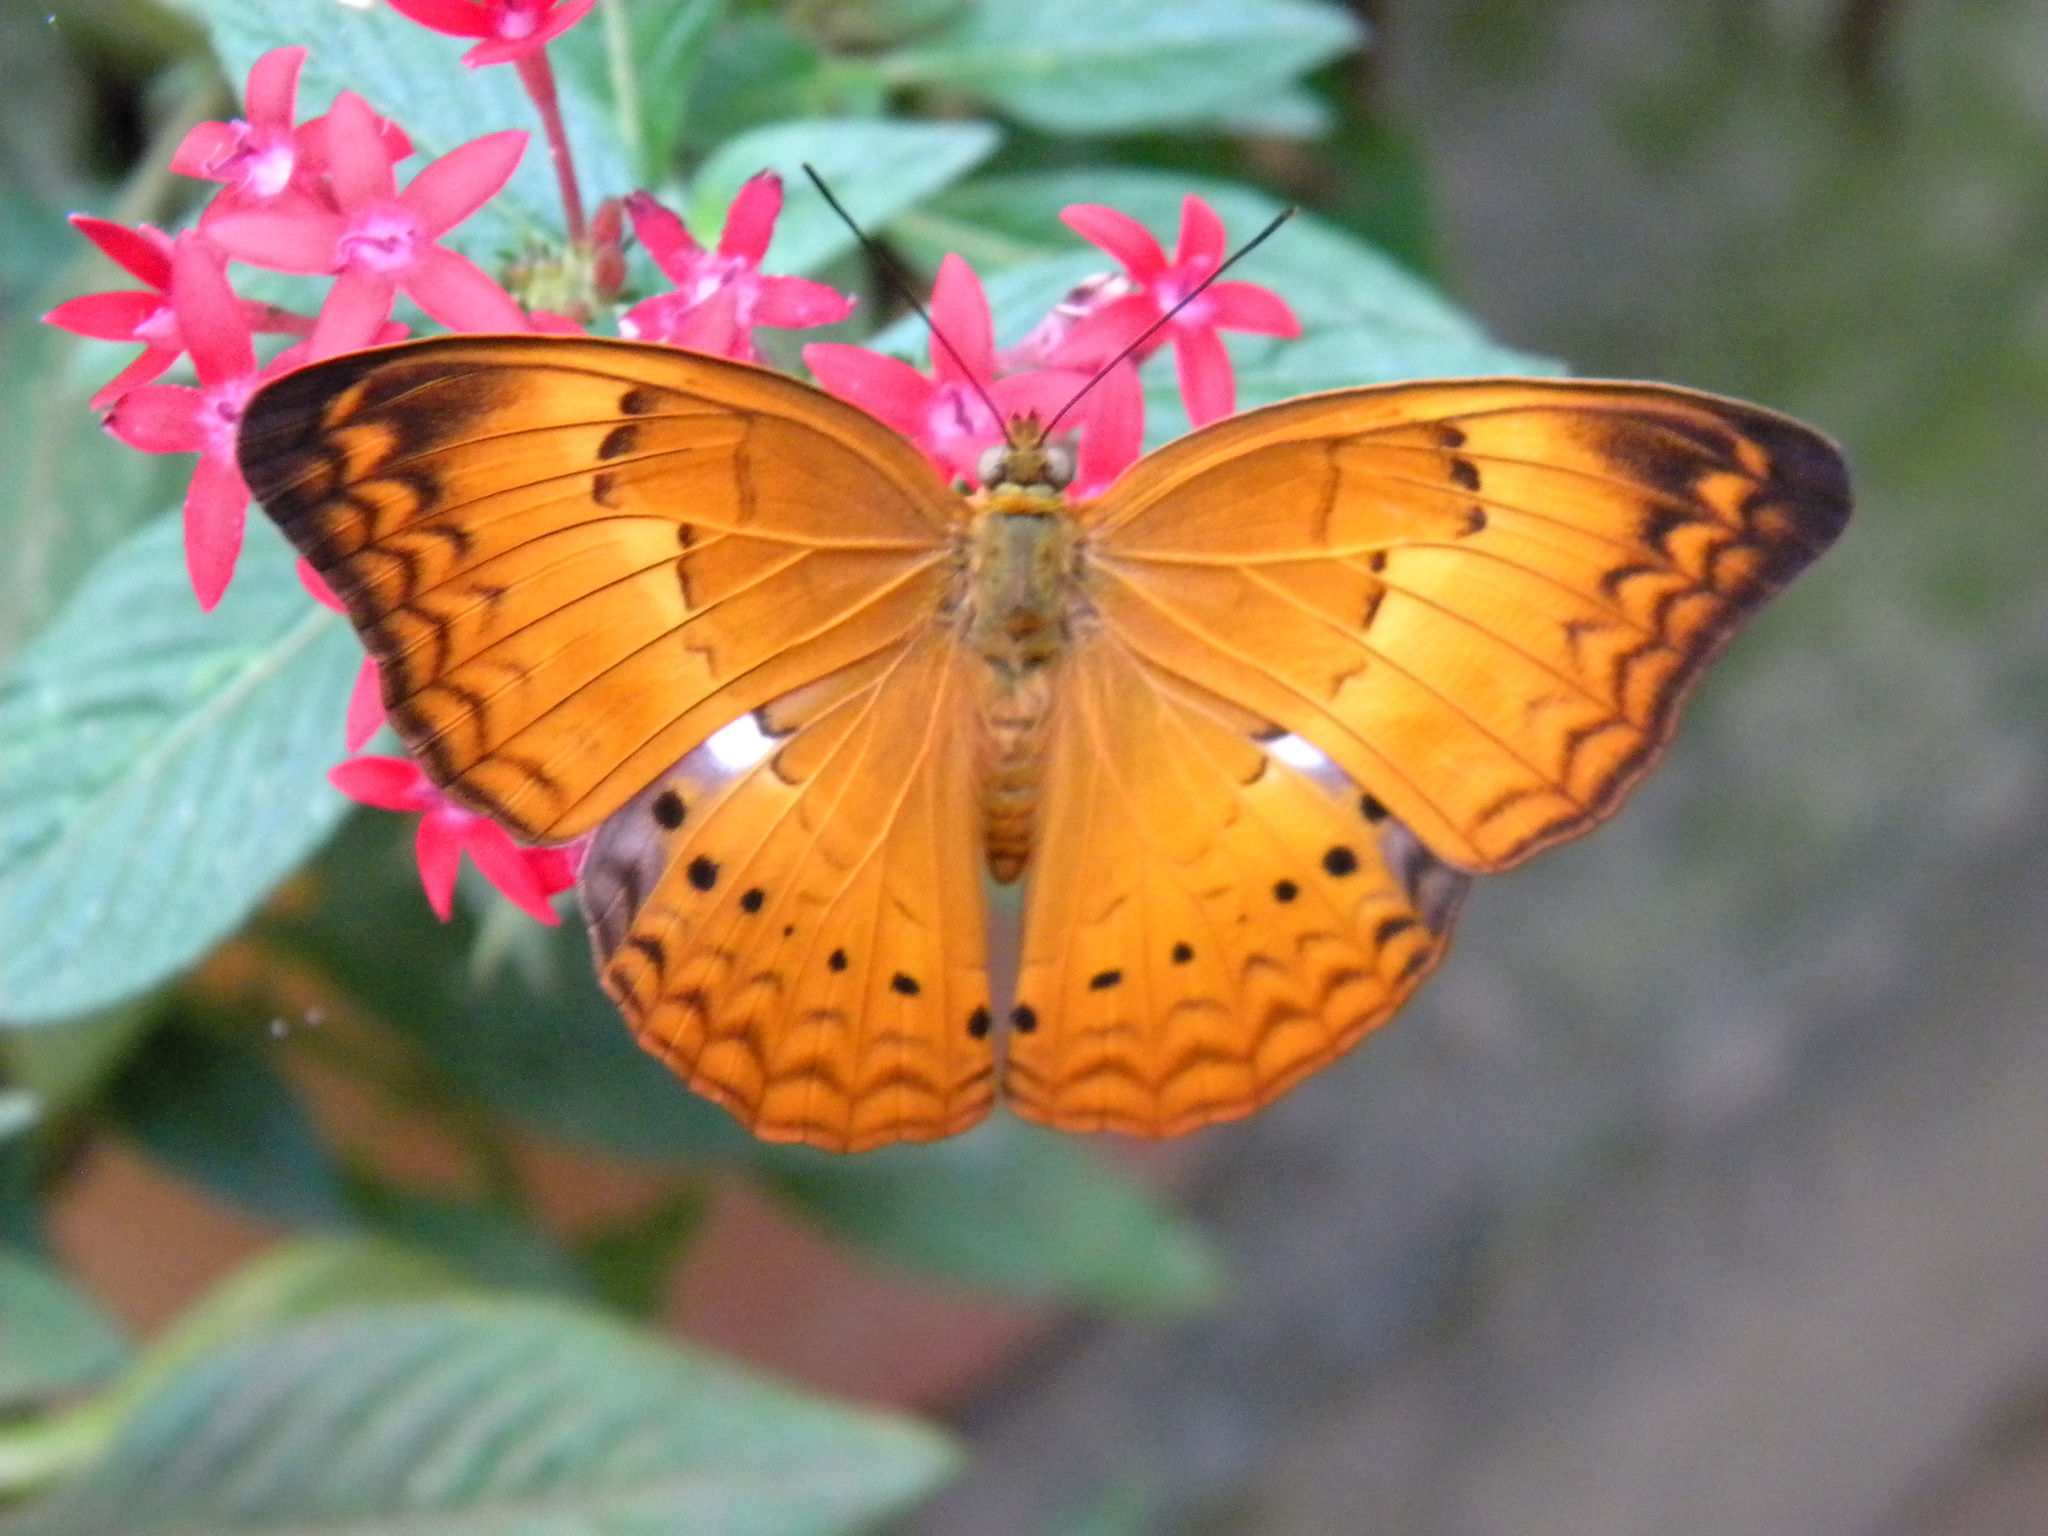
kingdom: Animalia
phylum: Arthropoda
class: Insecta
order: Lepidoptera
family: Nymphalidae
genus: Cirrochroa
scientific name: Cirrochroa thais
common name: Tamil yeoman
